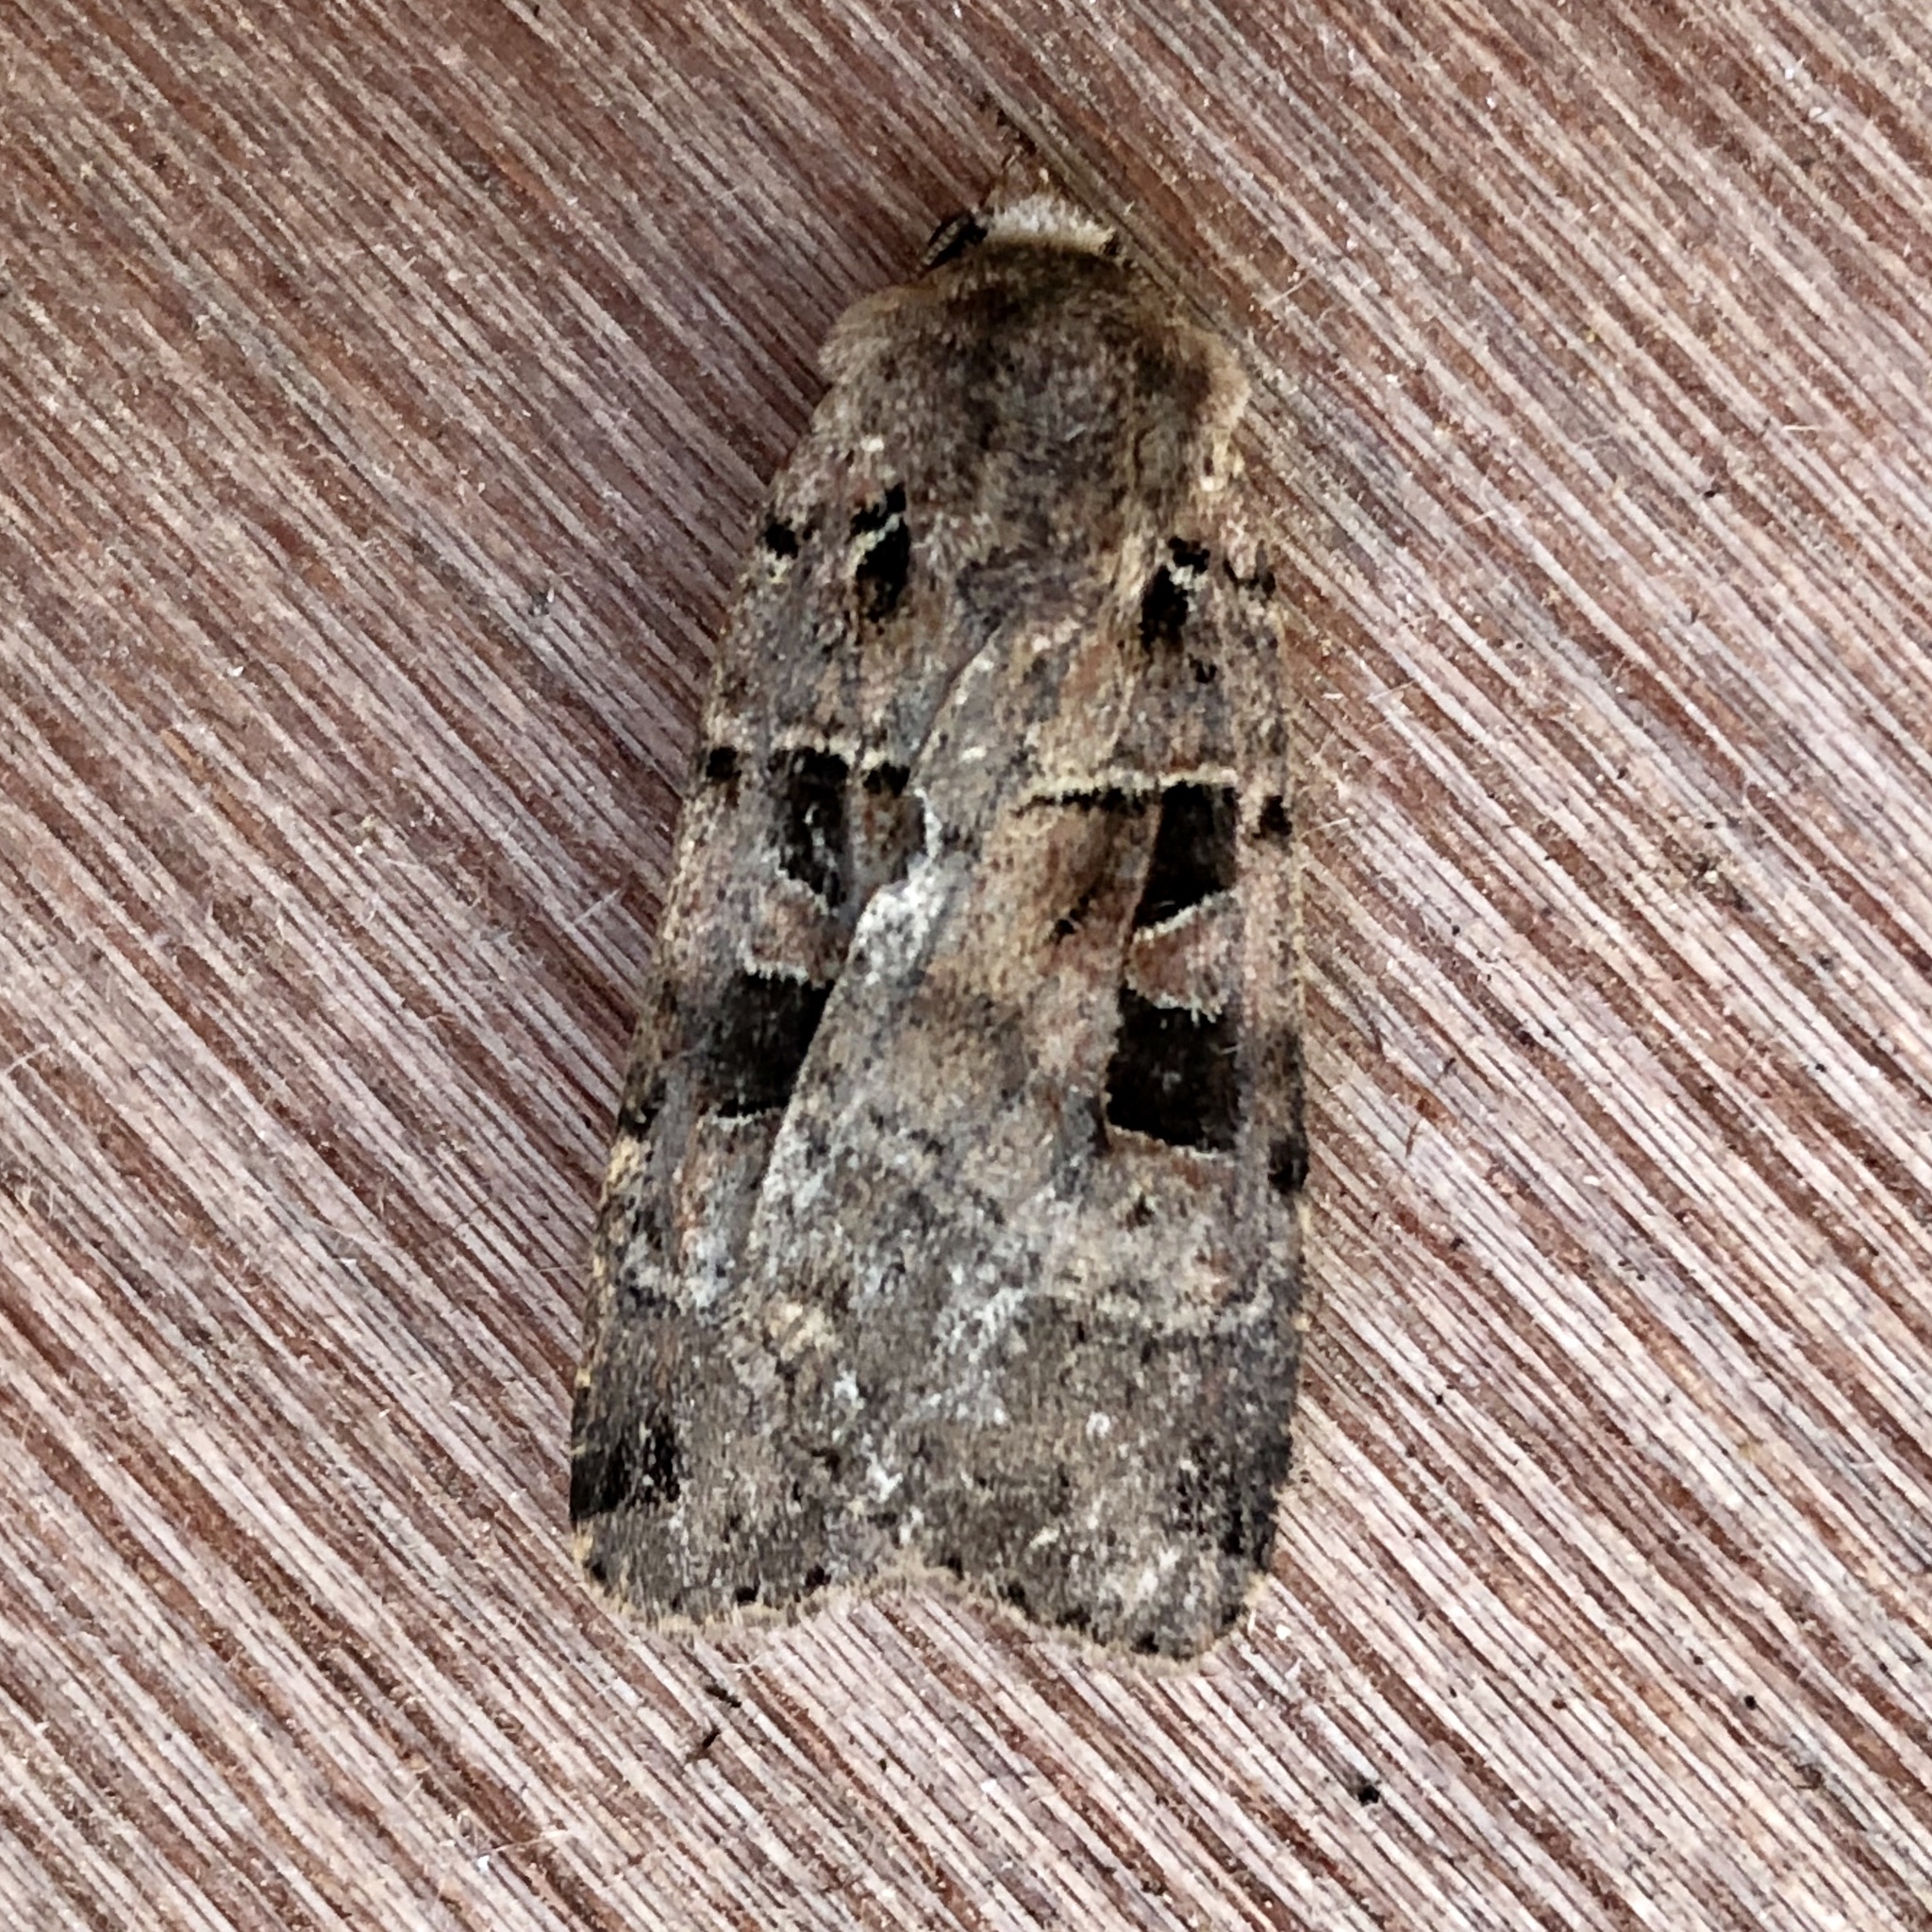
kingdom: Animalia
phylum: Arthropoda
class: Insecta
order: Lepidoptera
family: Noctuidae
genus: Xestia
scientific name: Xestia triangulum
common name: Double square-spot
